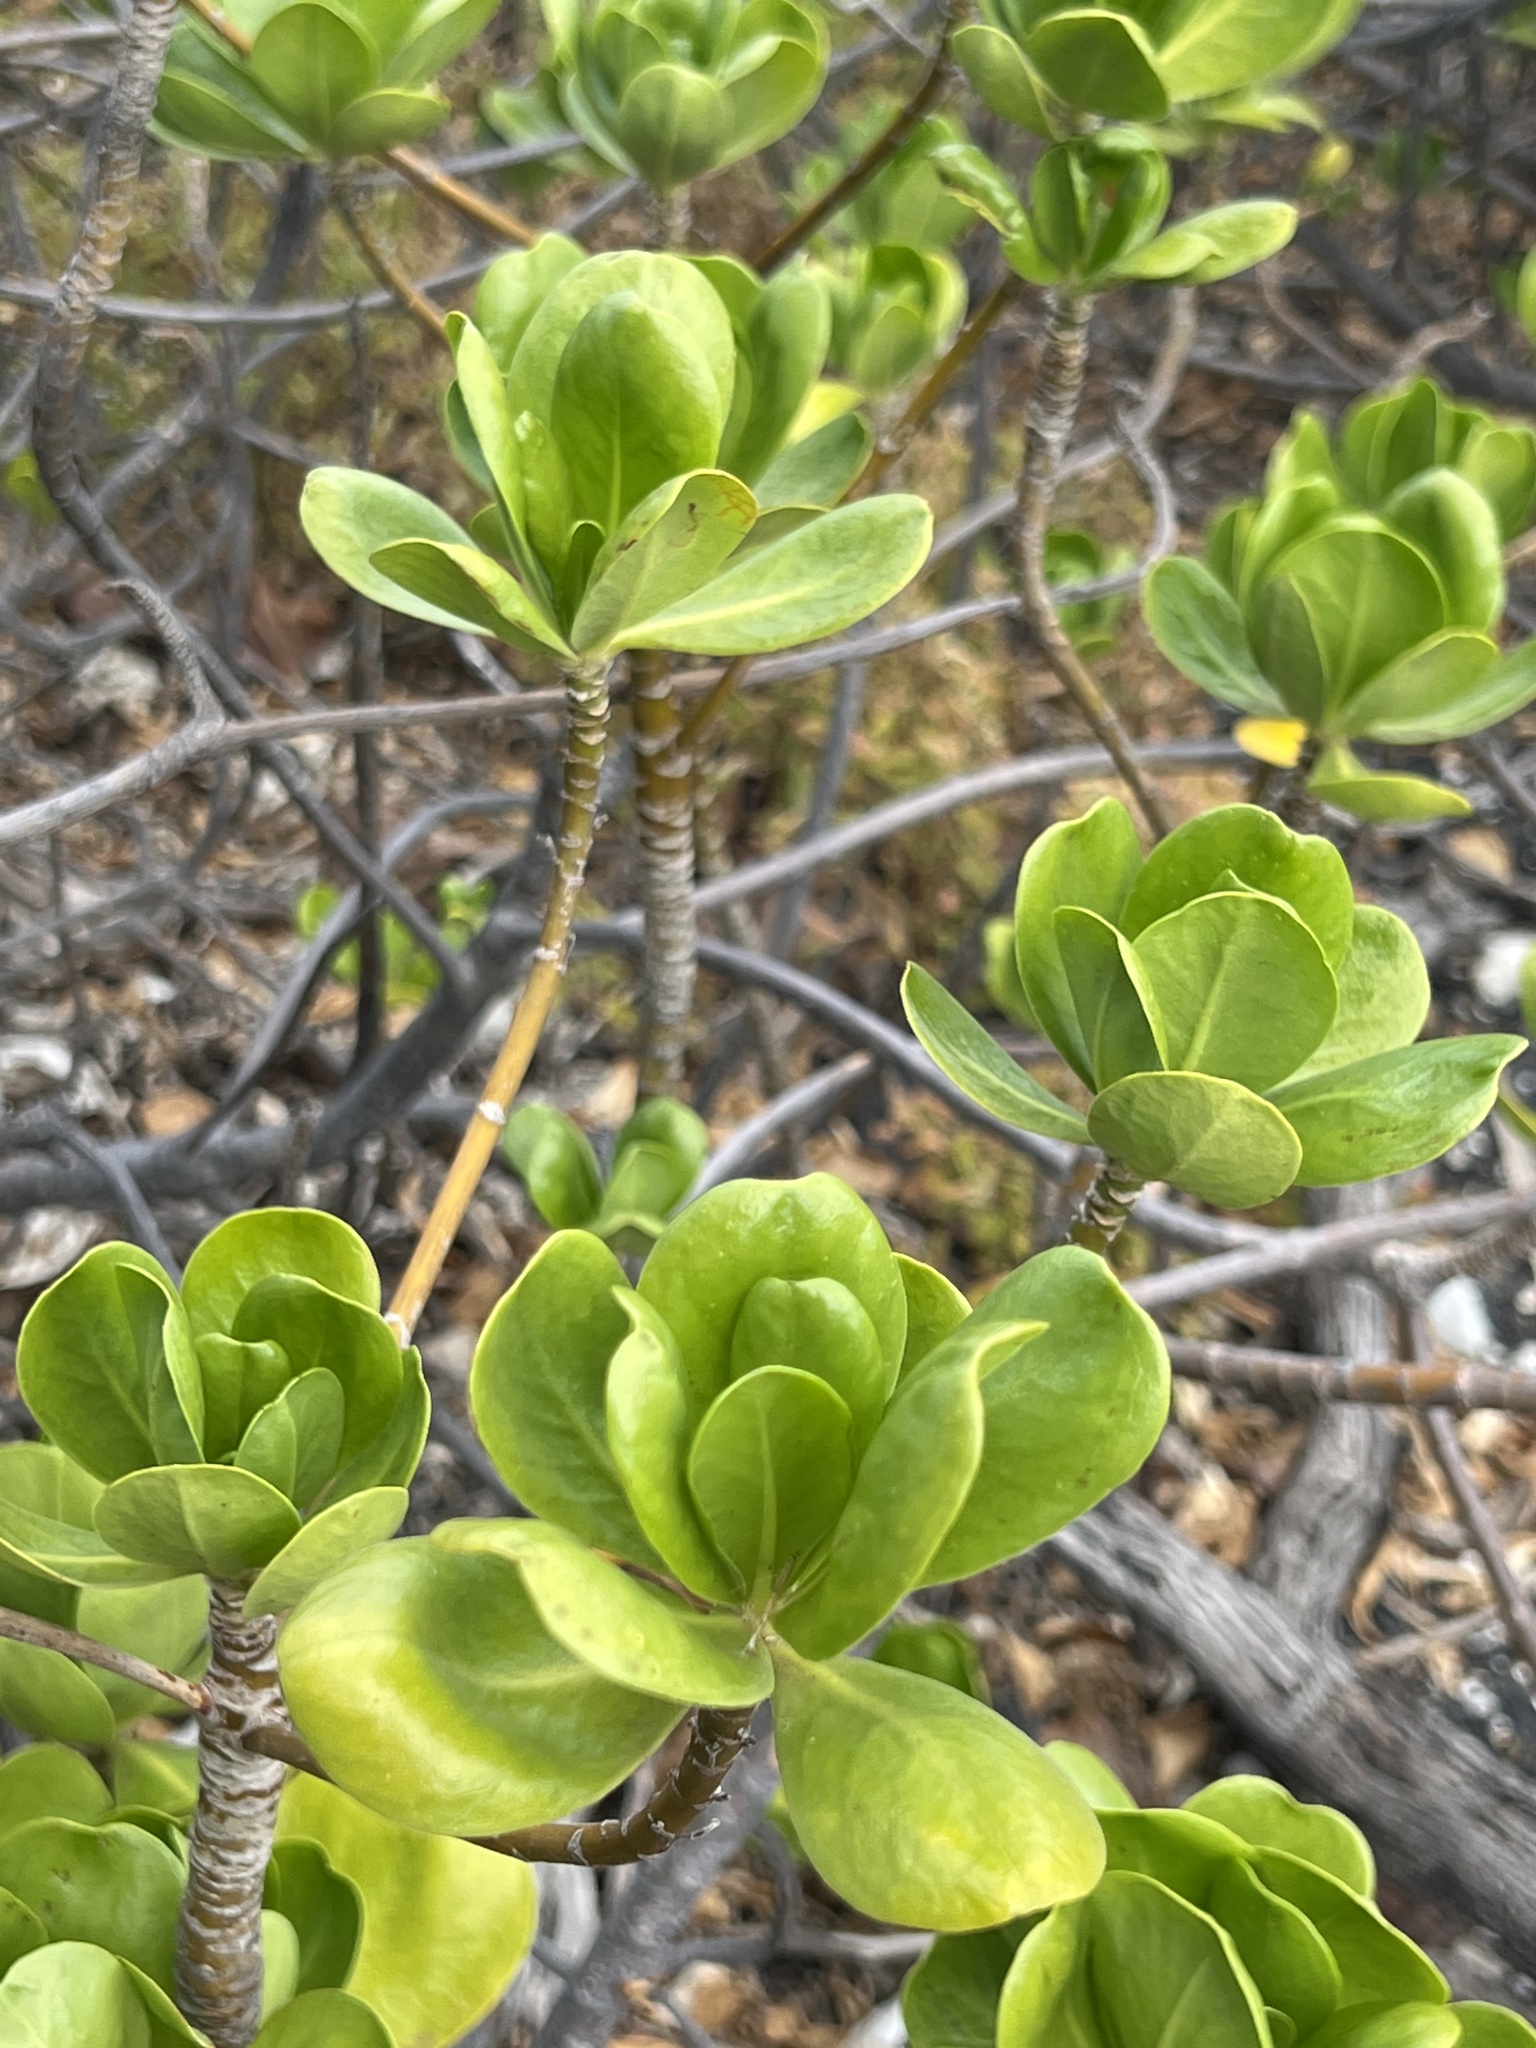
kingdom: Plantae
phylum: Tracheophyta
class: Magnoliopsida
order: Asterales
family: Goodeniaceae
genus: Scaevola
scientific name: Scaevola taccada
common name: Sea lettucetree
